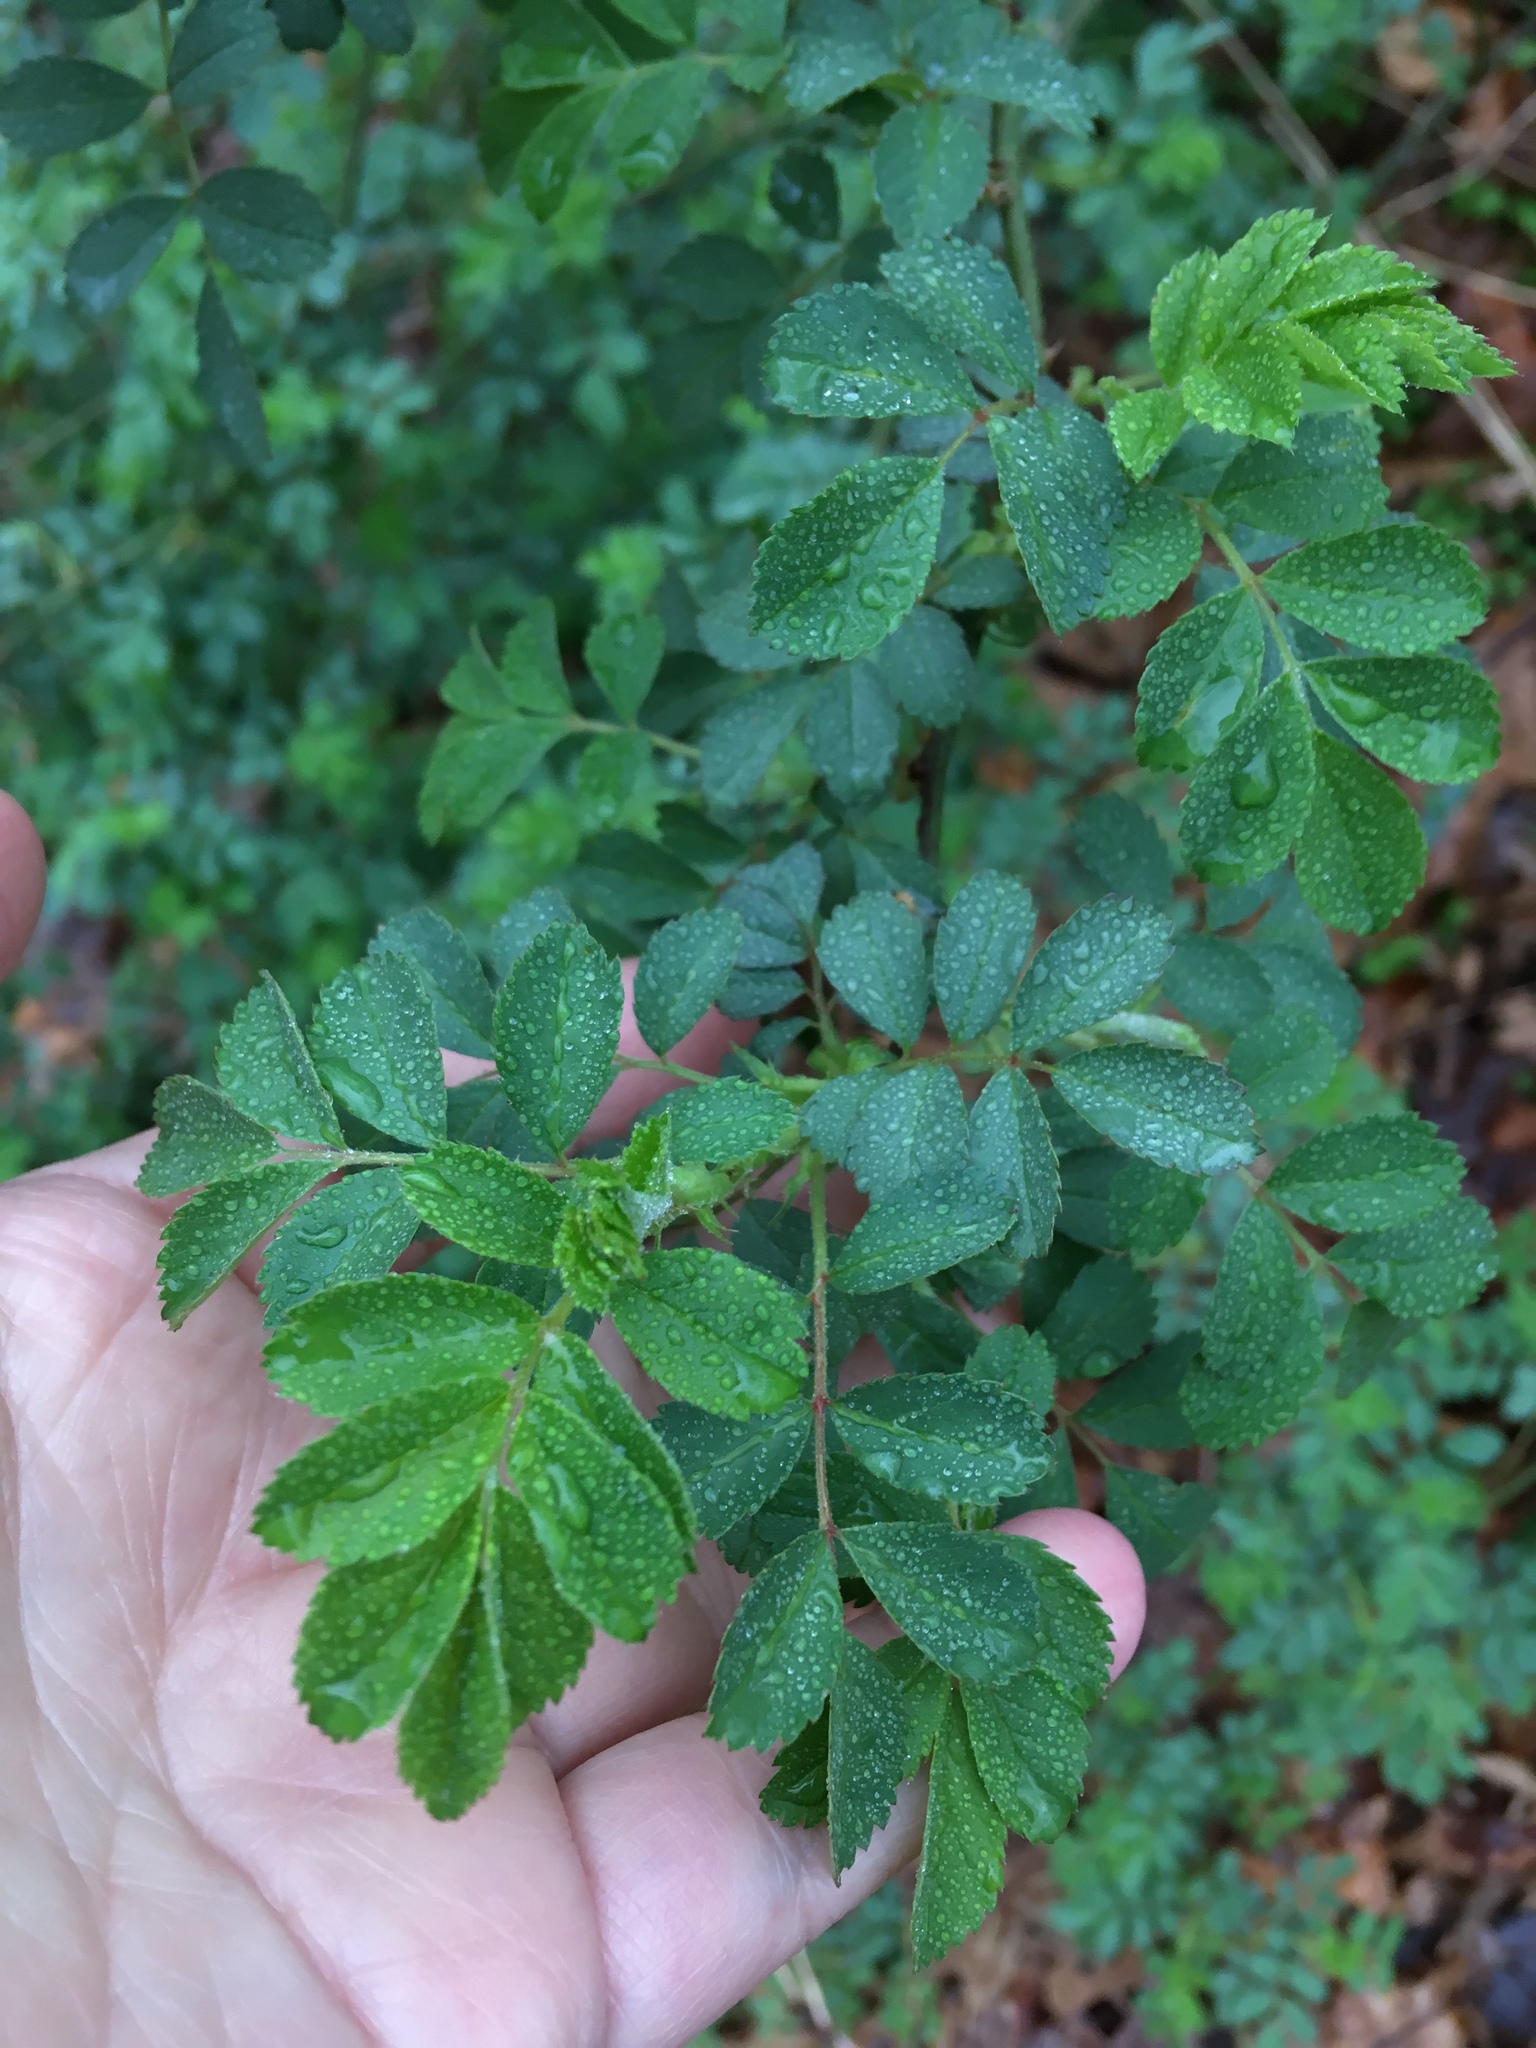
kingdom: Plantae
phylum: Tracheophyta
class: Magnoliopsida
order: Rosales
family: Rosaceae
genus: Rosa
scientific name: Rosa multiflora
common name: Multiflora rose
